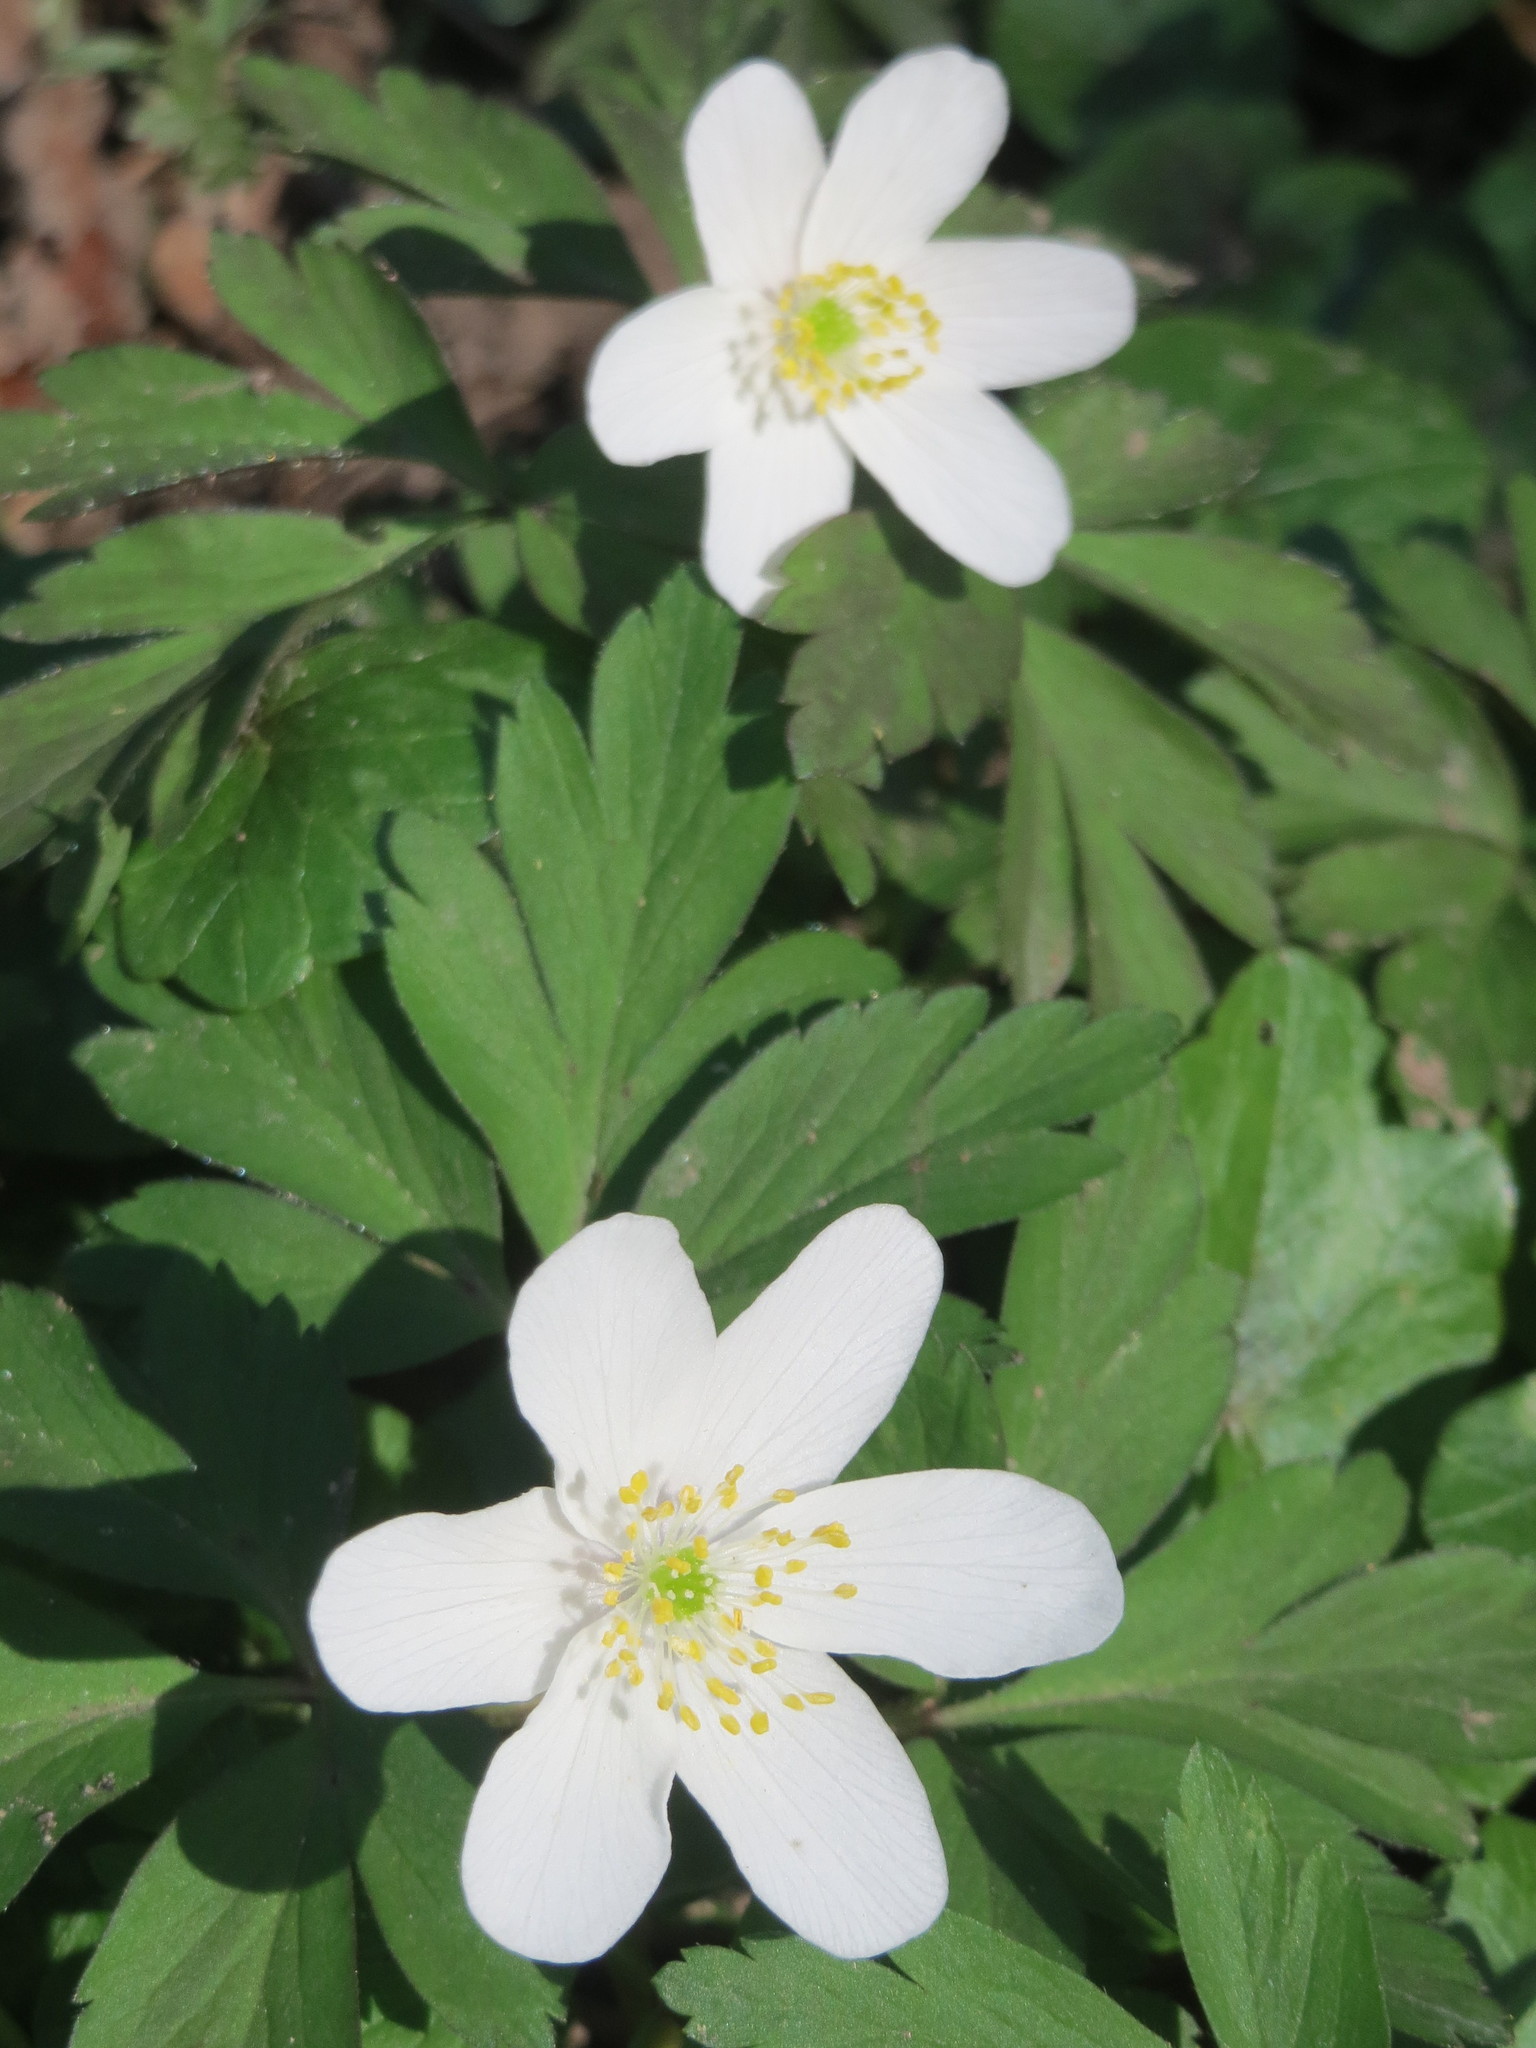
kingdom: Plantae
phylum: Tracheophyta
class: Magnoliopsida
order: Ranunculales
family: Ranunculaceae
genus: Anemone
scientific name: Anemone nemorosa
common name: Wood anemone
